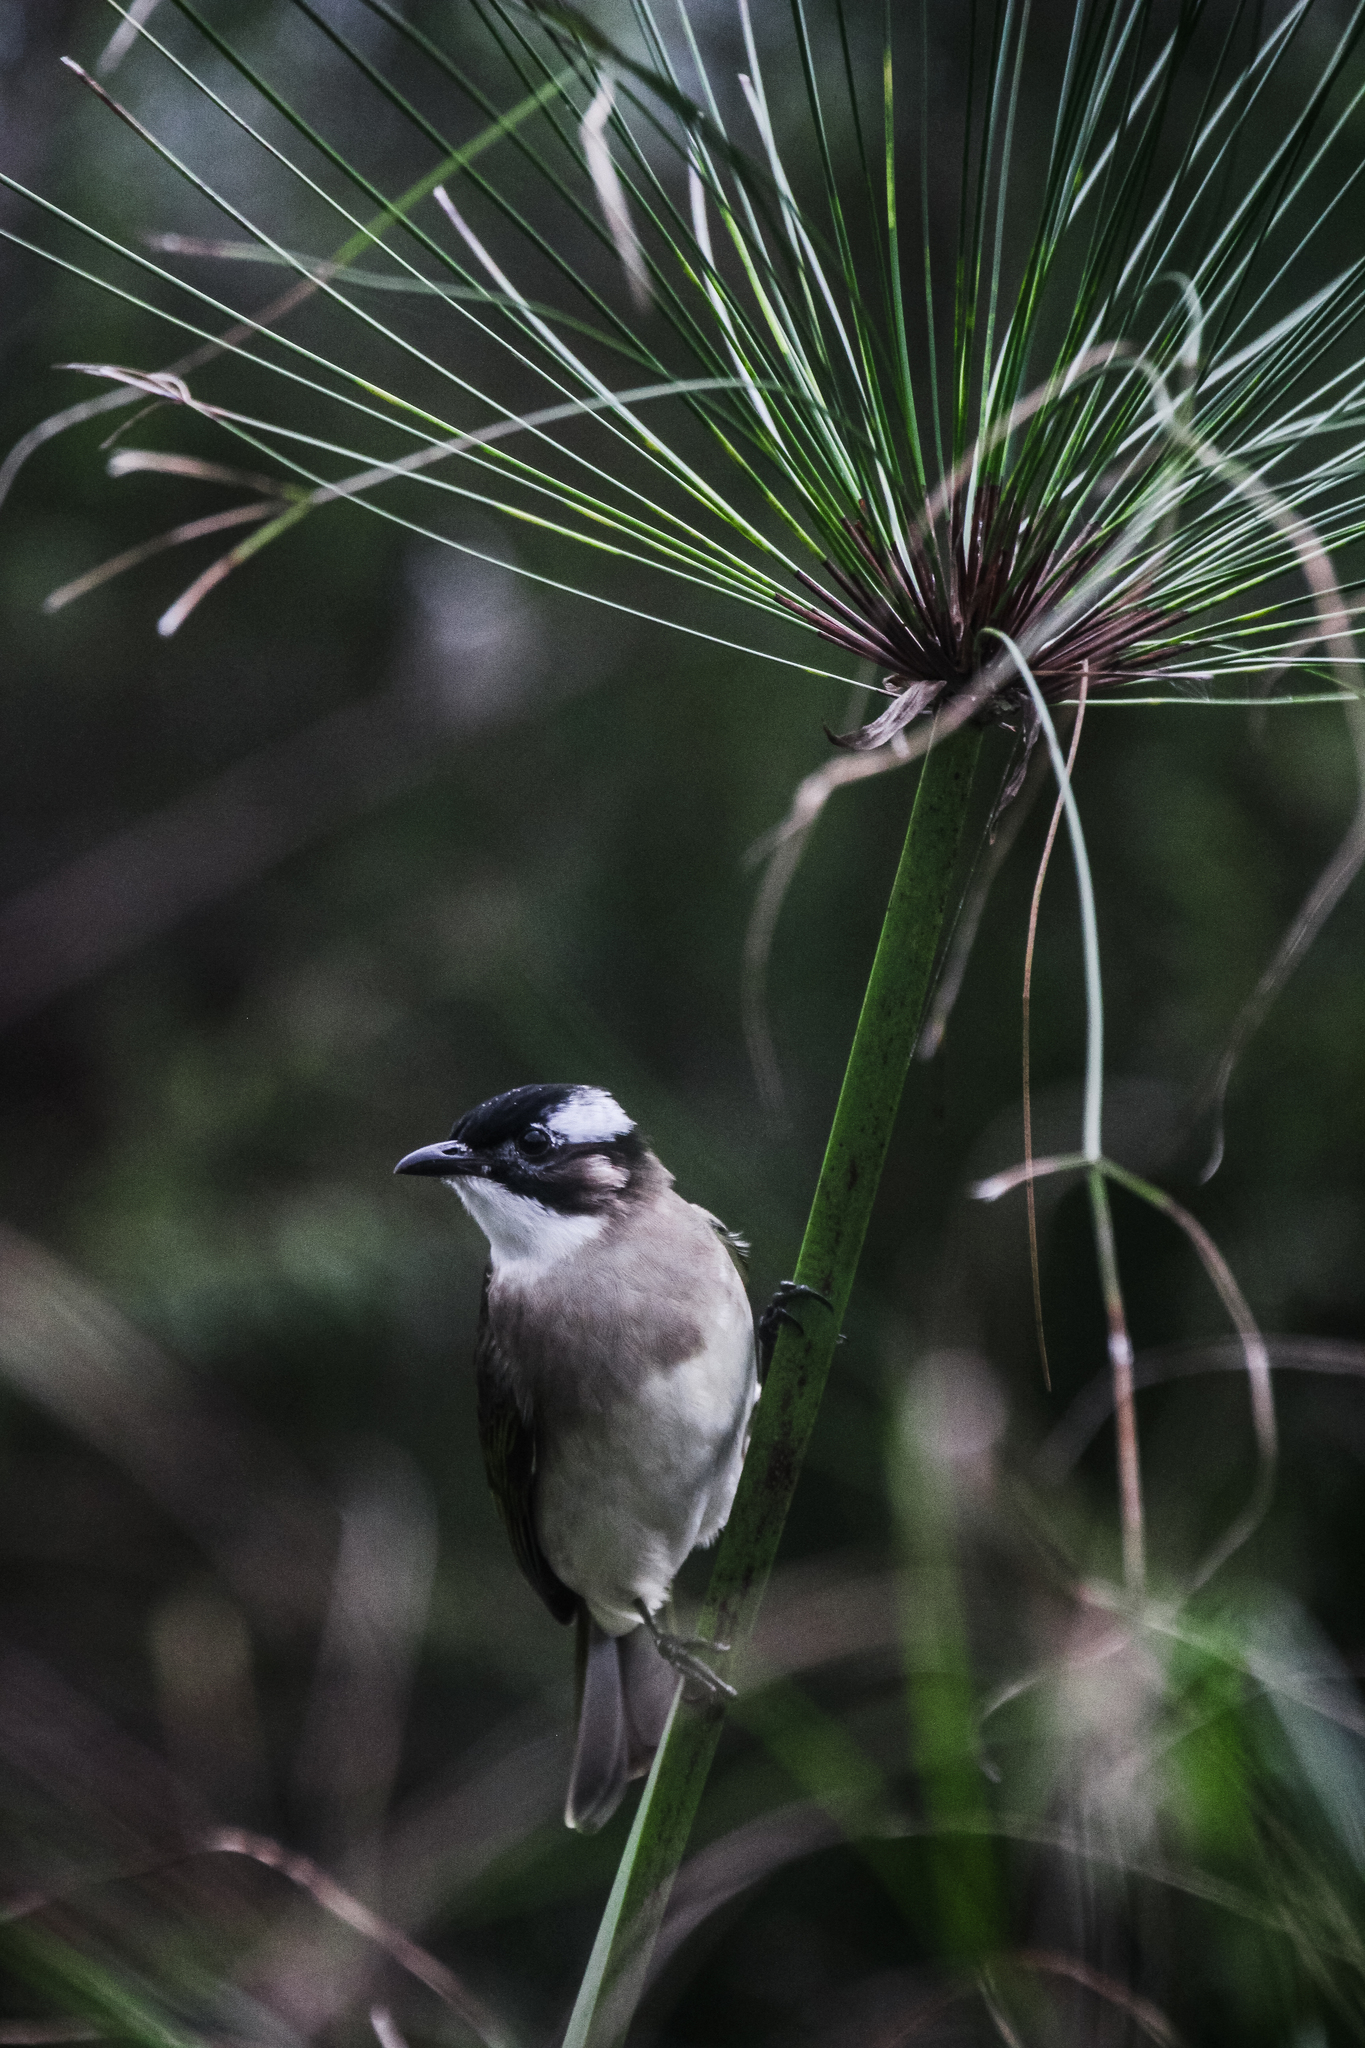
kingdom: Animalia
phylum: Chordata
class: Aves
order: Passeriformes
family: Pycnonotidae
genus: Pycnonotus
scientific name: Pycnonotus sinensis
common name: Light-vented bulbul
